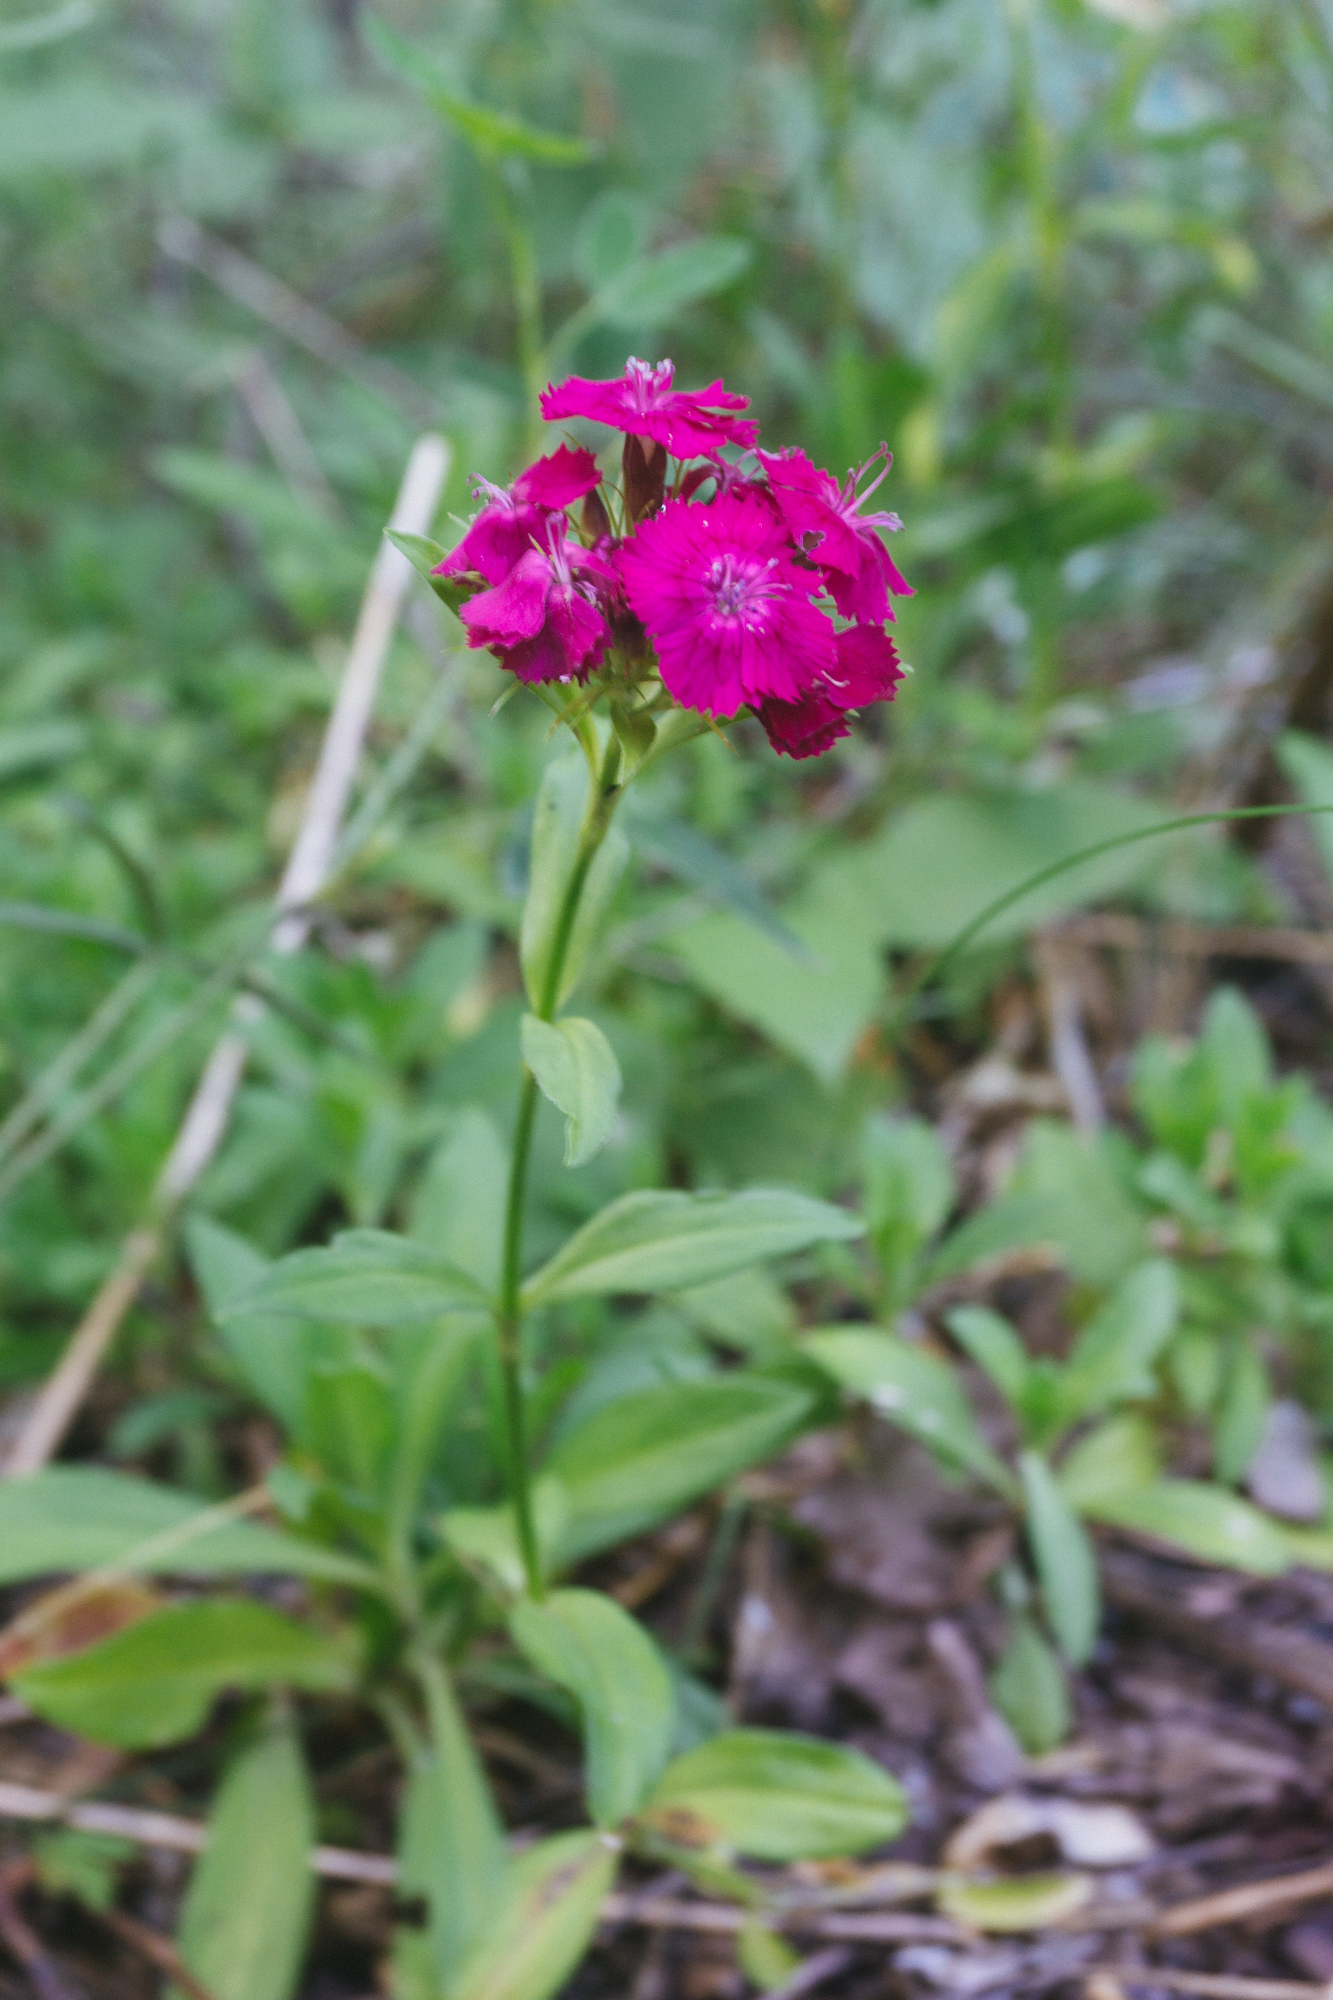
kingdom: Plantae
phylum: Tracheophyta
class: Magnoliopsida
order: Caryophyllales
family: Caryophyllaceae
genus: Dianthus
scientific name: Dianthus barbatus
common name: Sweet-william
